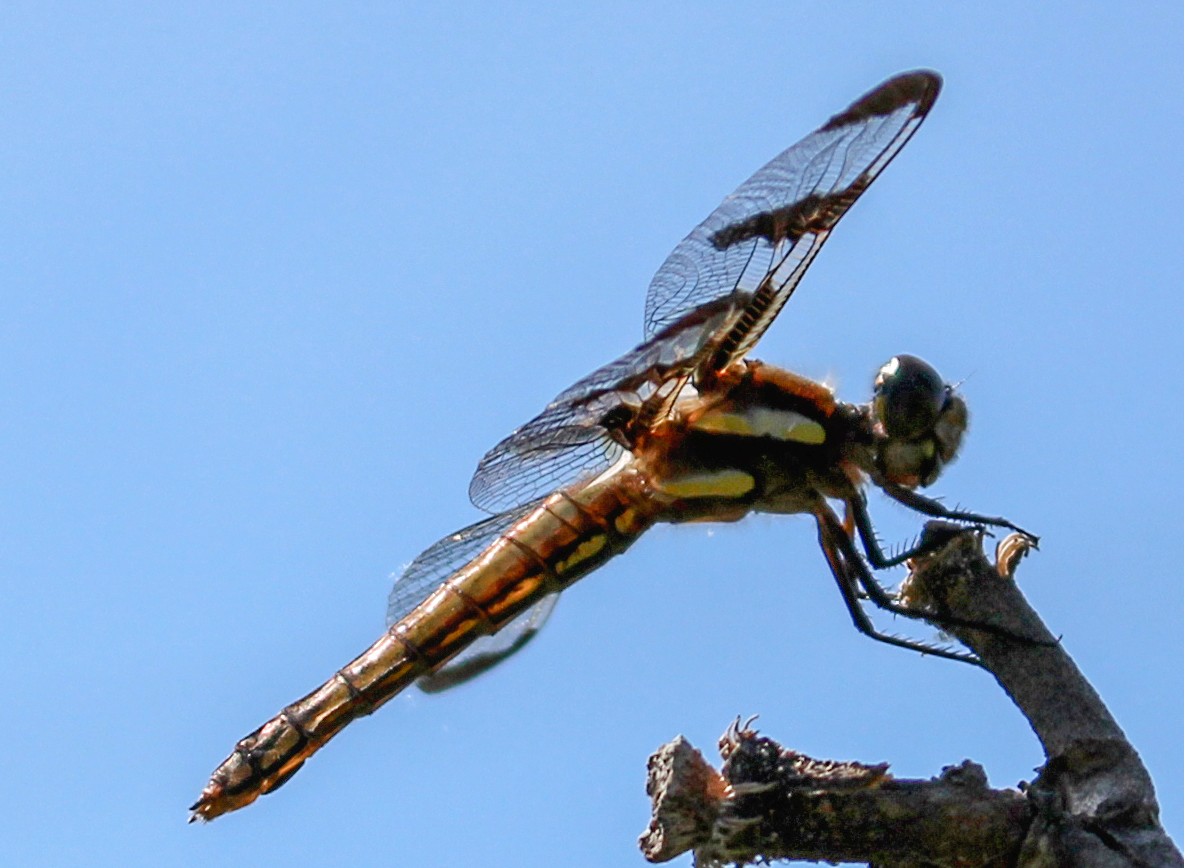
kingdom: Animalia
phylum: Arthropoda
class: Insecta
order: Odonata
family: Libellulidae
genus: Libellula
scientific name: Libellula pulchella
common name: Twelve-spotted skimmer
